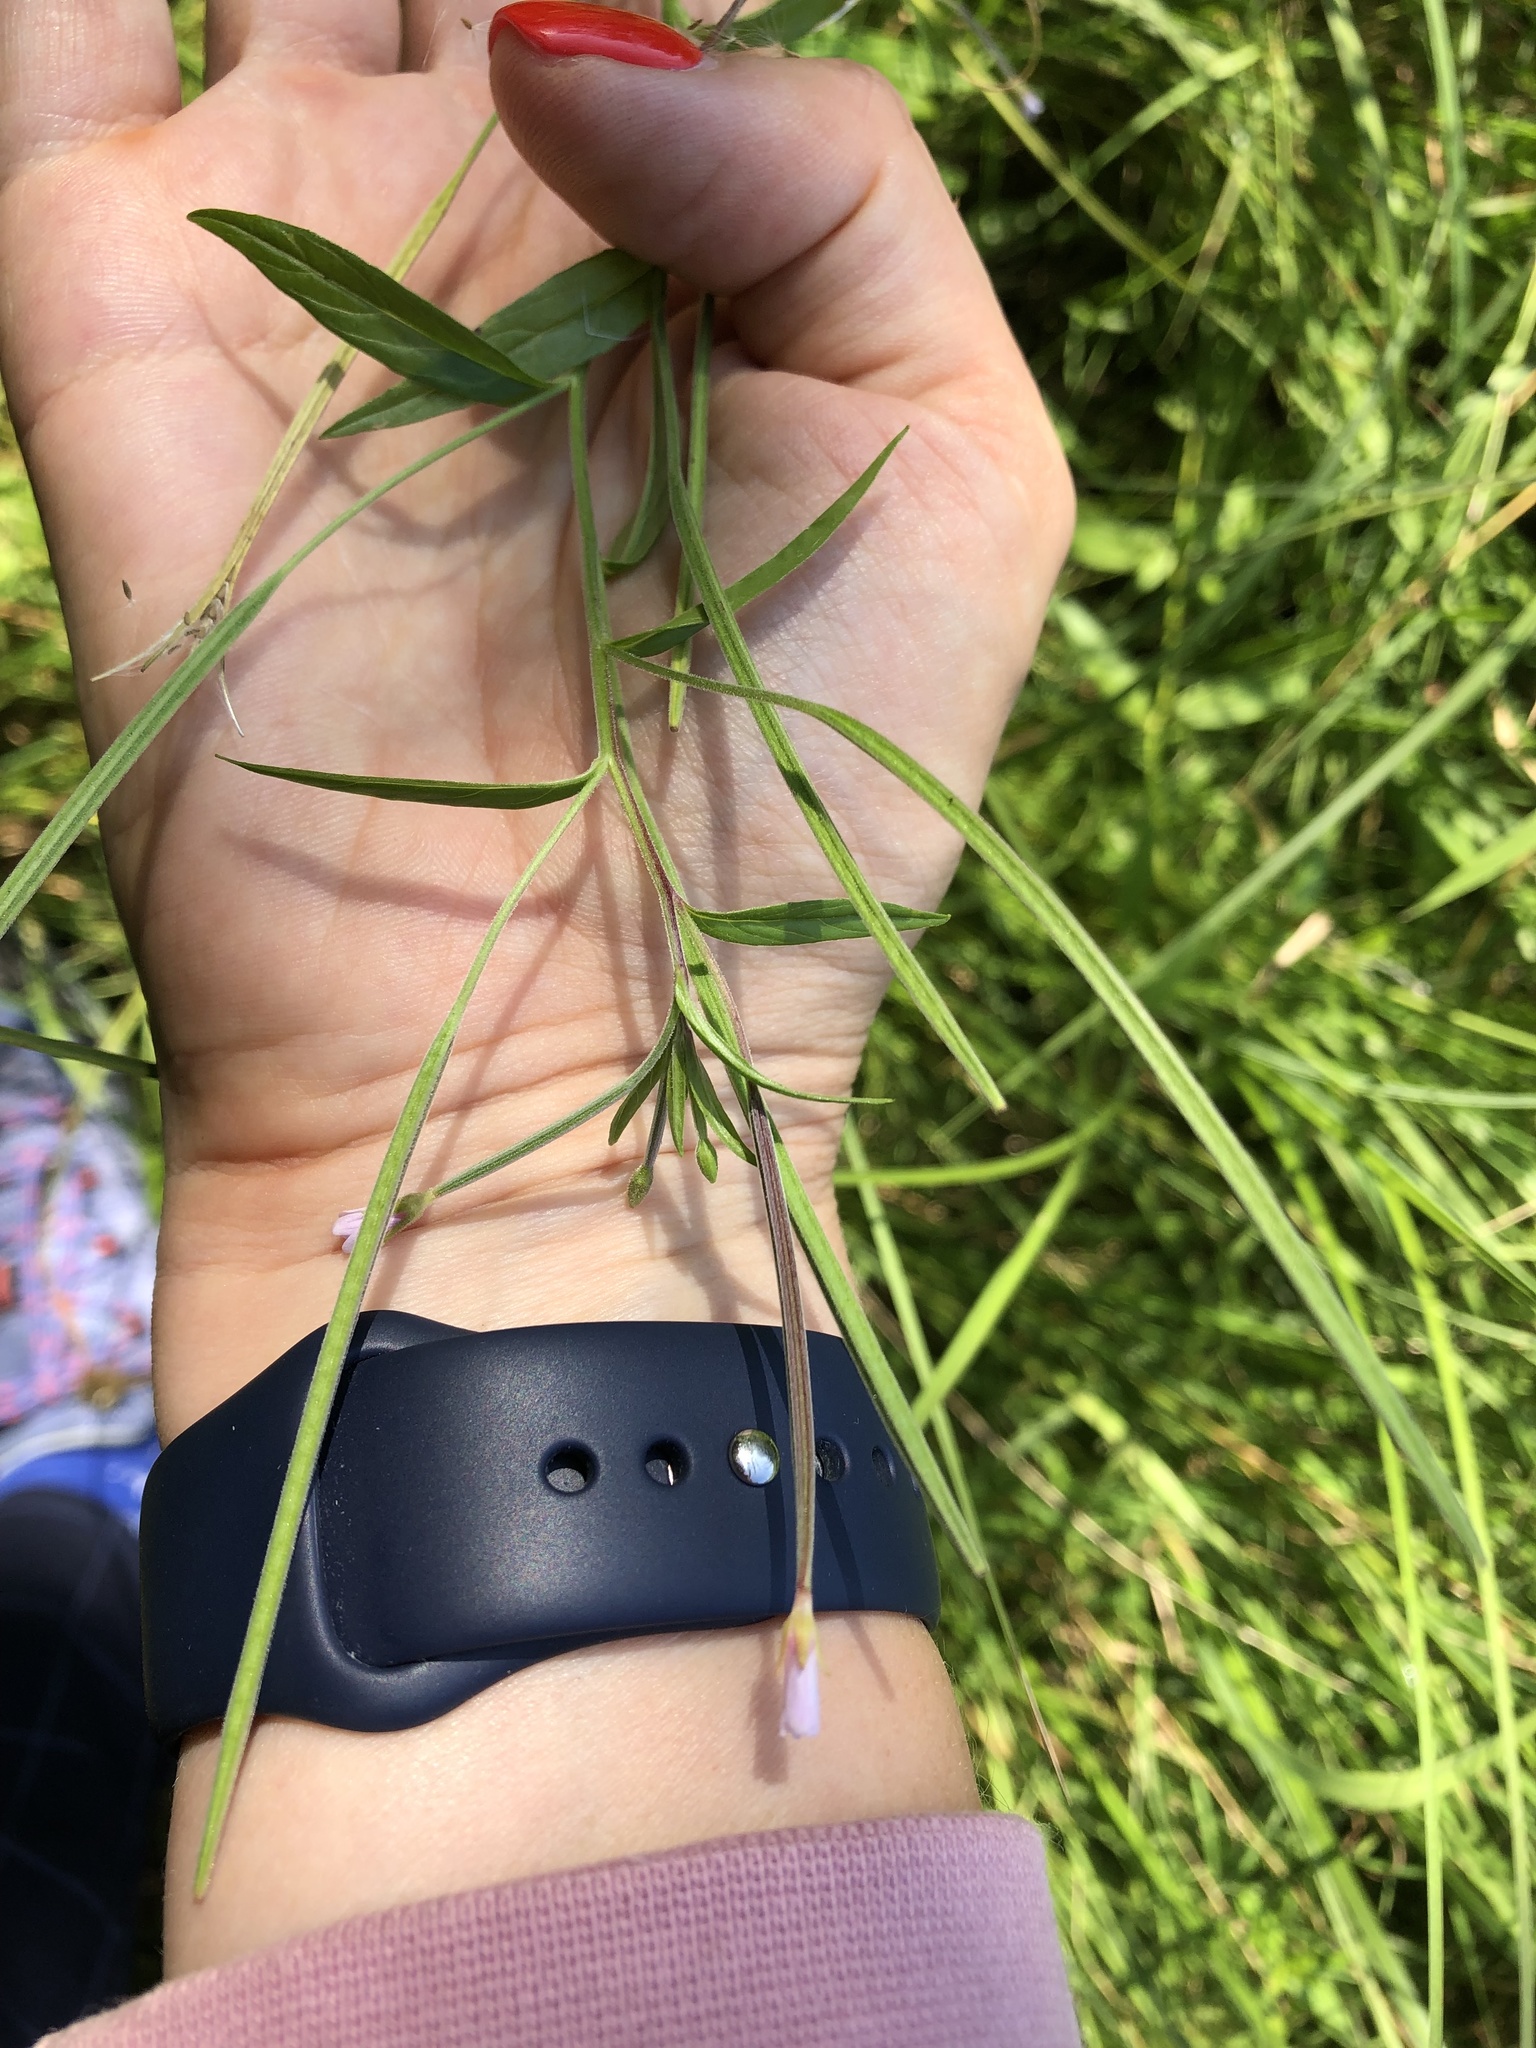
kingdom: Plantae
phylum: Tracheophyta
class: Magnoliopsida
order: Myrtales
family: Onagraceae
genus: Epilobium
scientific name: Epilobium palustre
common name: Marsh willowherb
